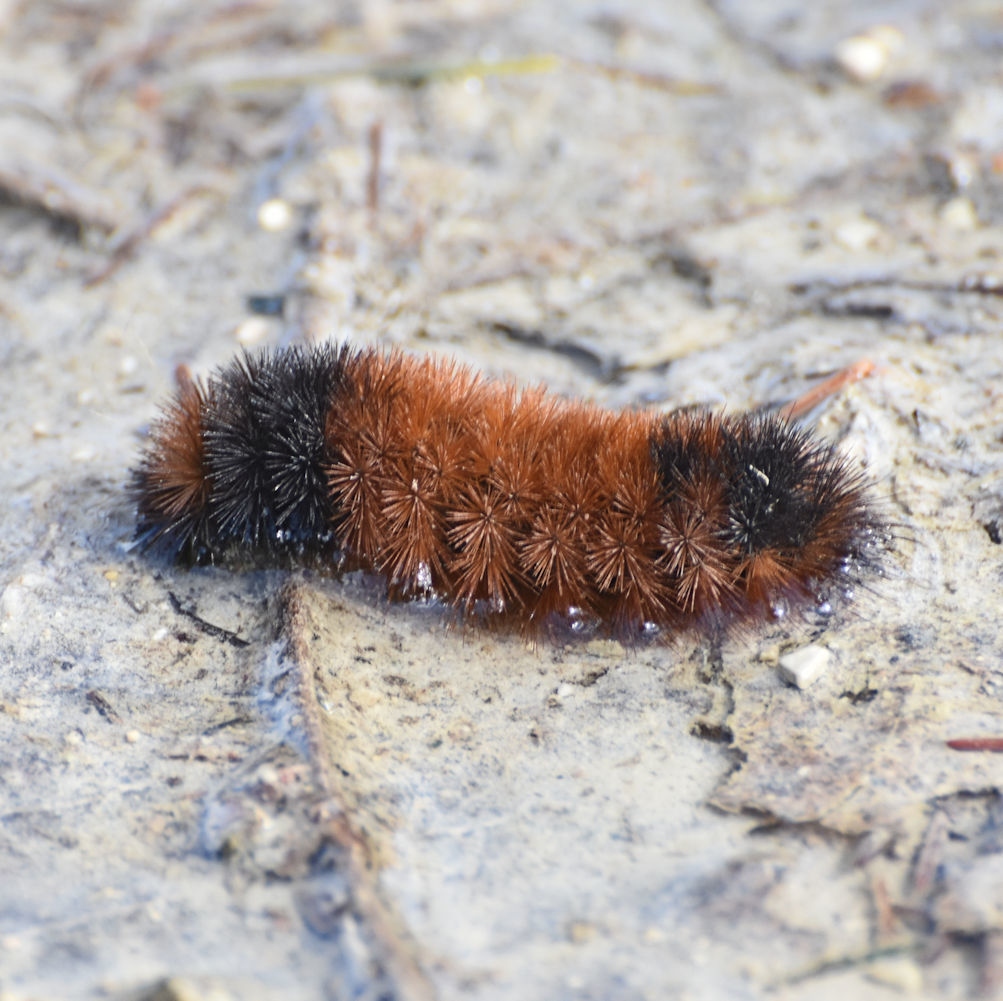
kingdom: Animalia
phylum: Arthropoda
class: Insecta
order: Lepidoptera
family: Erebidae
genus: Pyrrharctia
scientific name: Pyrrharctia isabella
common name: Isabella tiger moth
